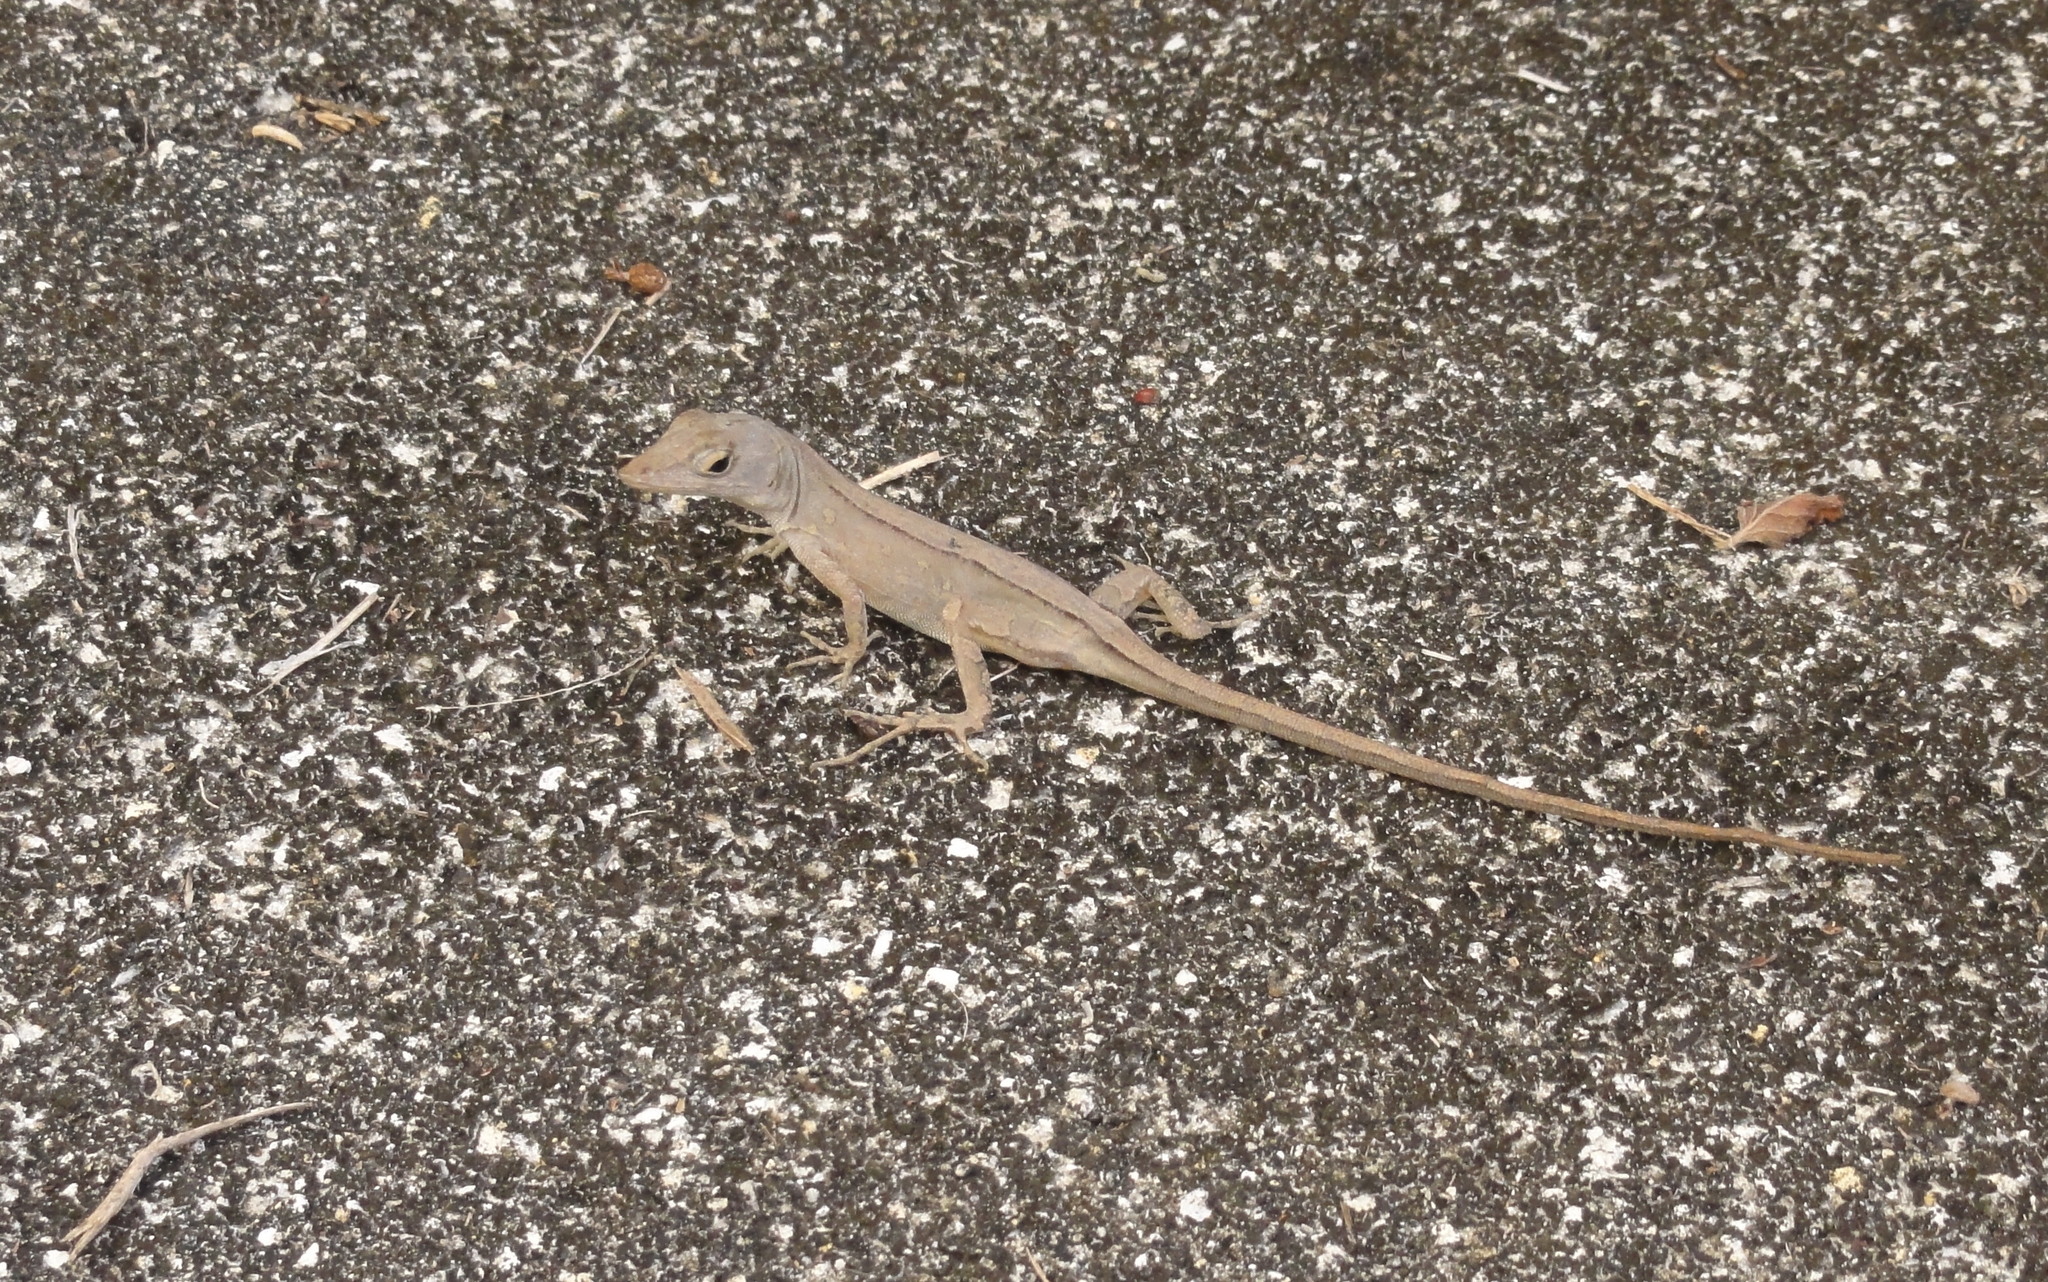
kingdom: Animalia
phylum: Chordata
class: Squamata
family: Dactyloidae
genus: Anolis
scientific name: Anolis sagrei
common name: Brown anole
